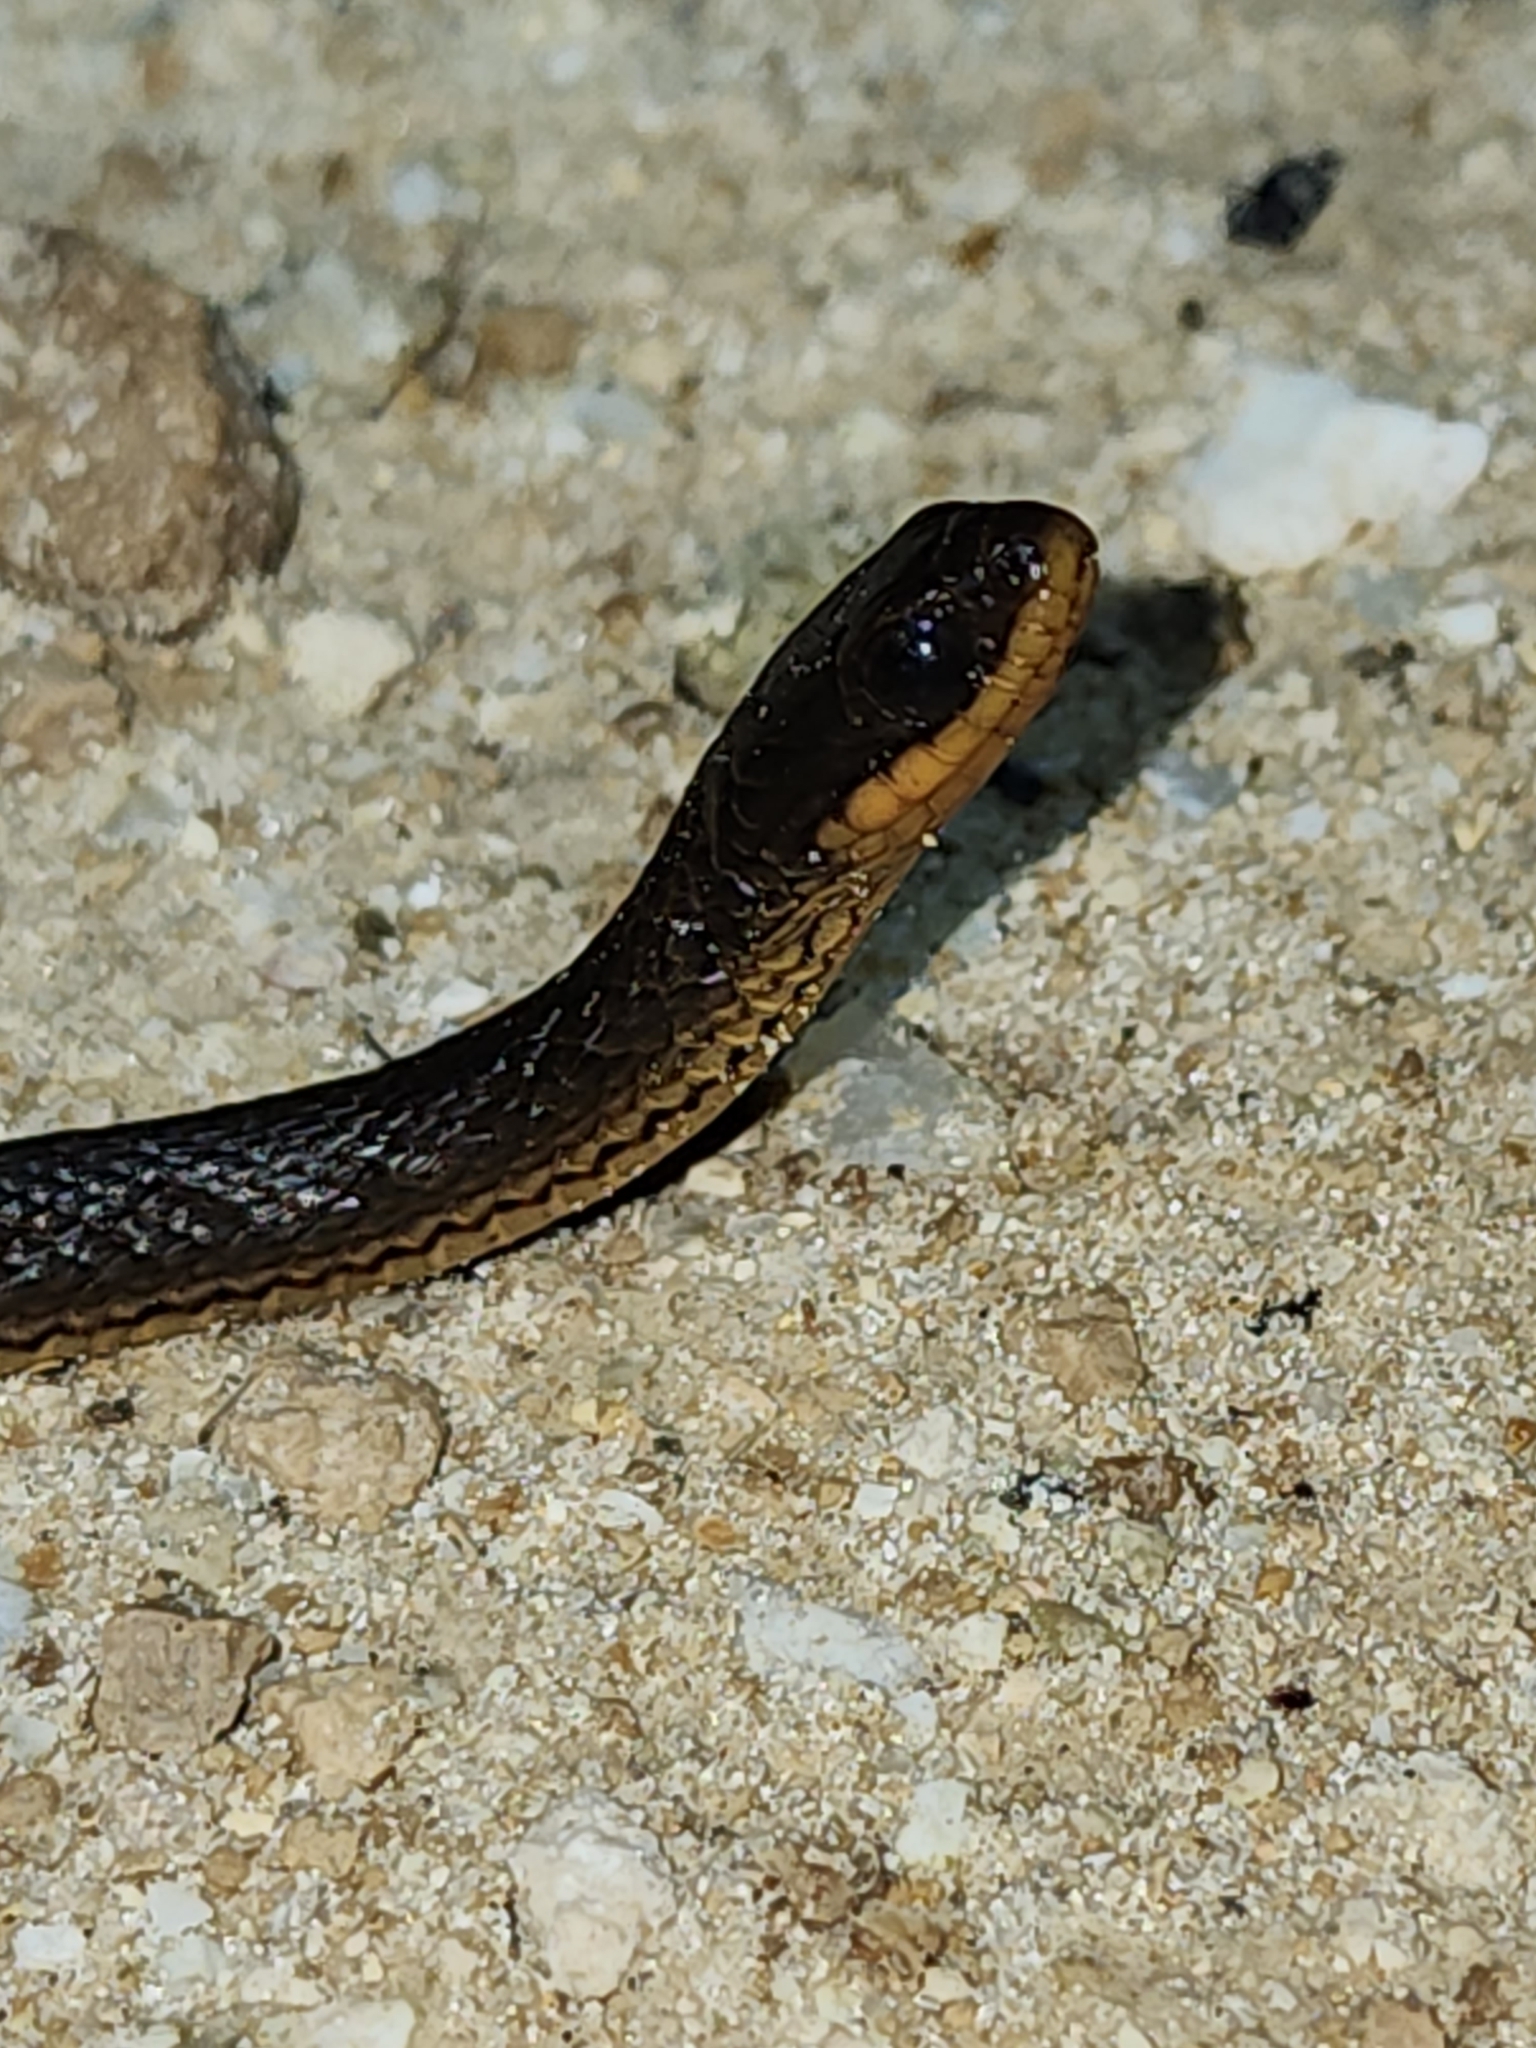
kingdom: Animalia
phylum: Chordata
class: Squamata
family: Colubridae
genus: Liodytes
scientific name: Liodytes rigida
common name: Crayfish snake
